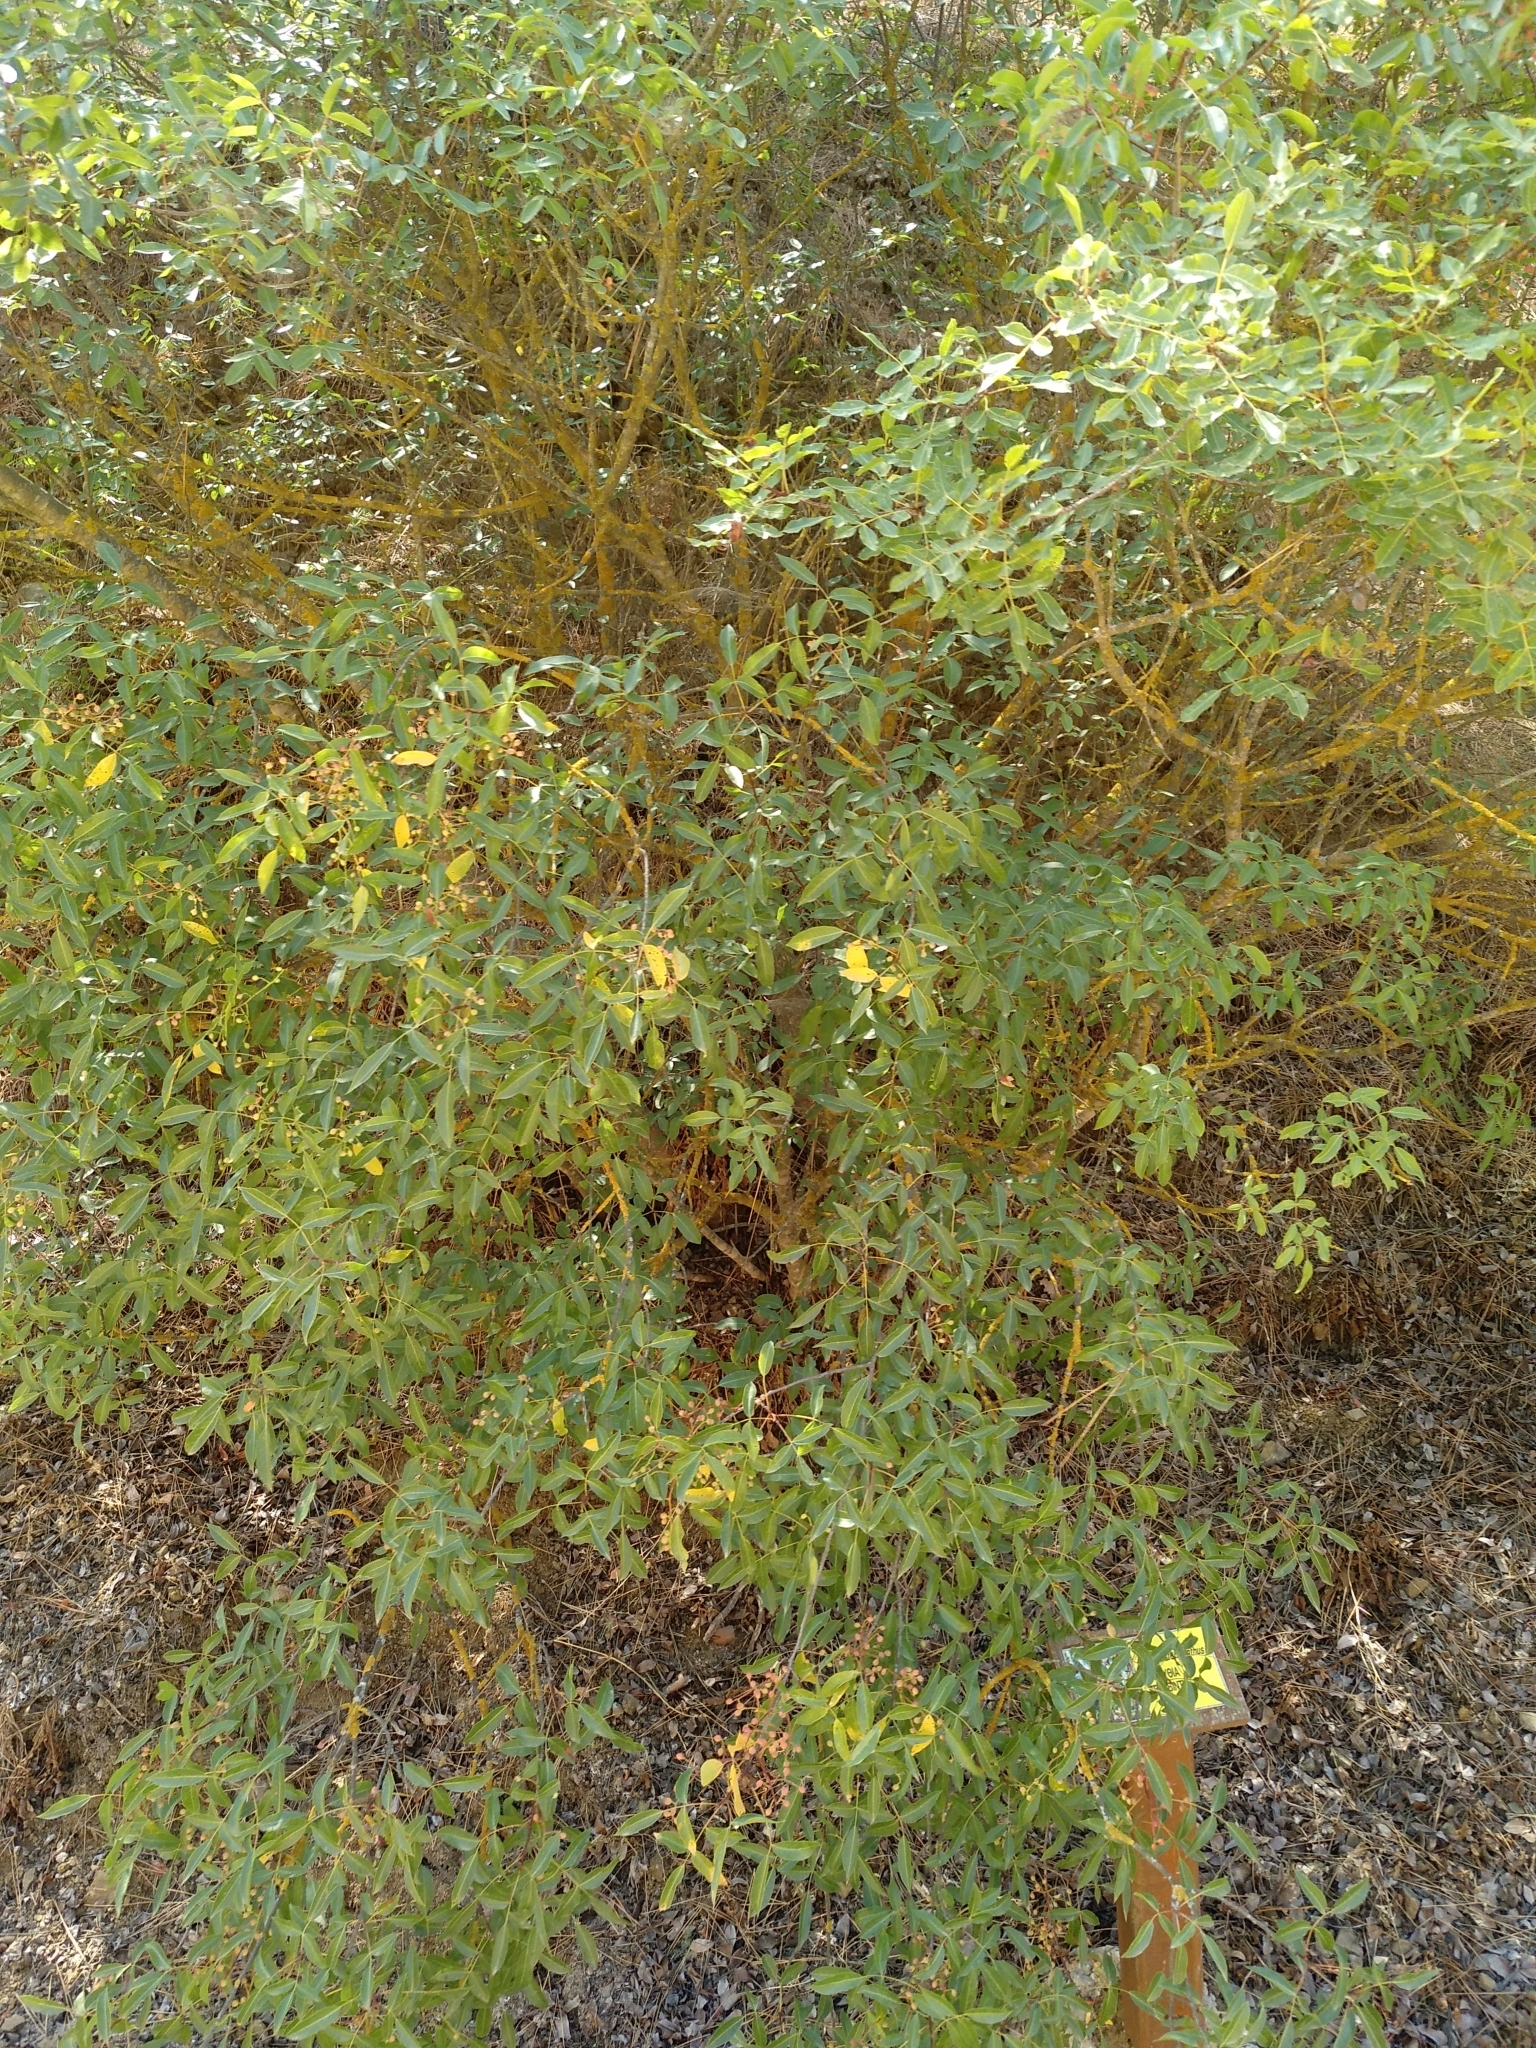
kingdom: Plantae
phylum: Tracheophyta
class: Magnoliopsida
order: Sapindales
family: Anacardiaceae
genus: Pistacia
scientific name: Pistacia terebinthus
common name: Terebinth
